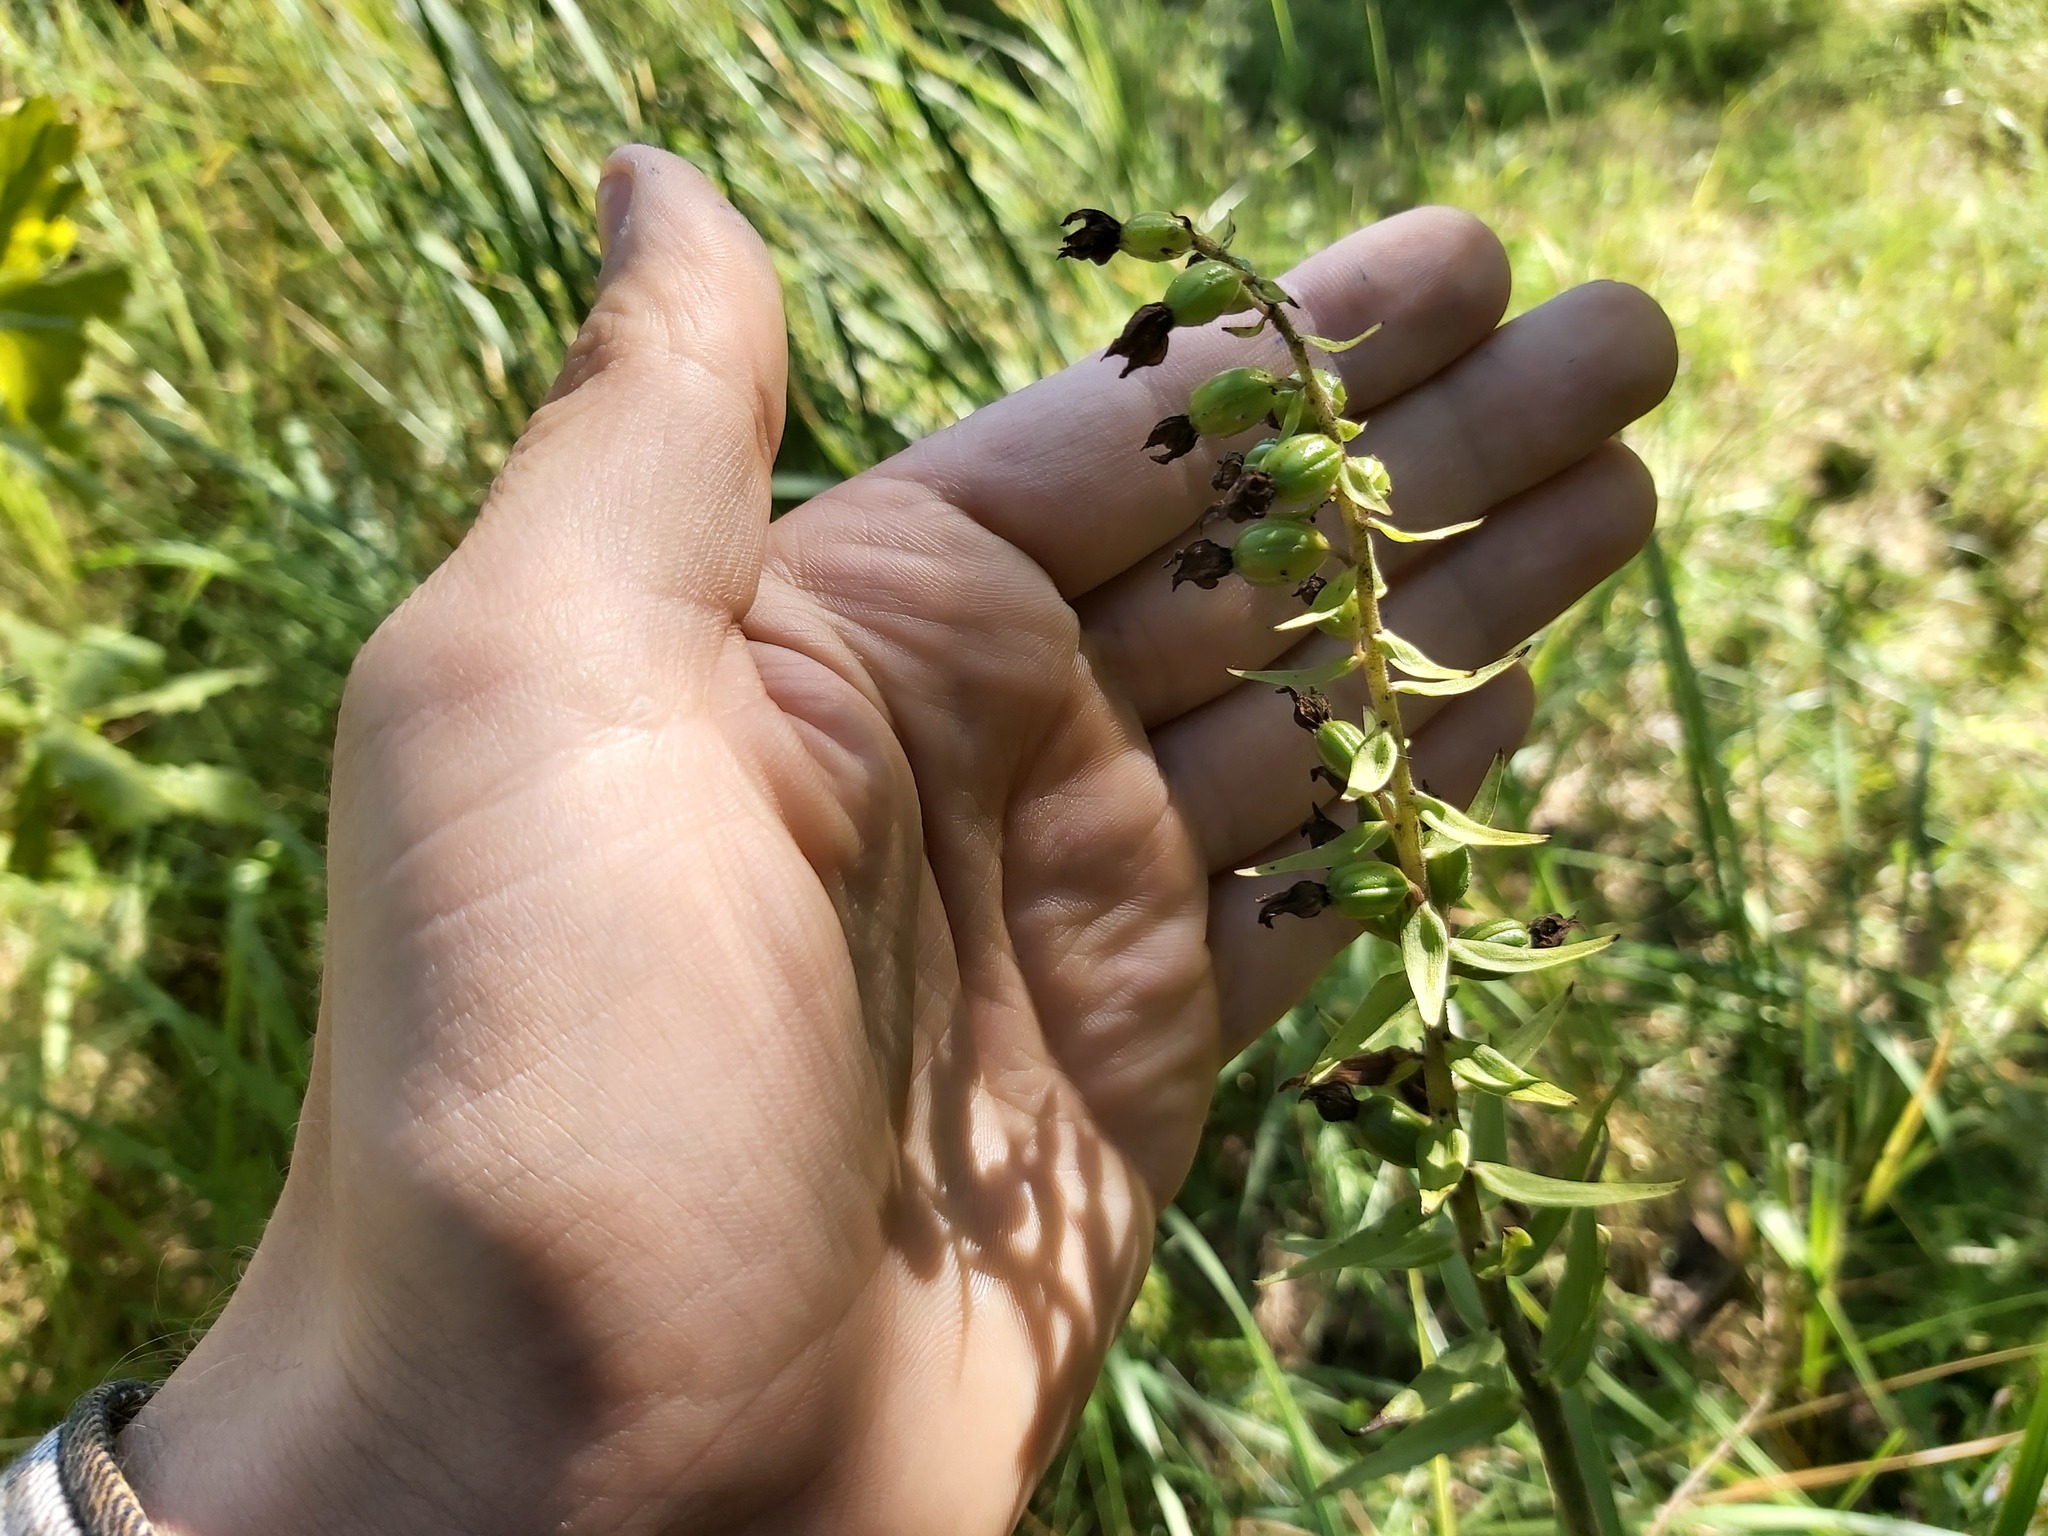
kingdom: Plantae
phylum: Tracheophyta
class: Liliopsida
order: Asparagales
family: Orchidaceae
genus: Epipactis
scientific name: Epipactis helleborine
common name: Broad-leaved helleborine
